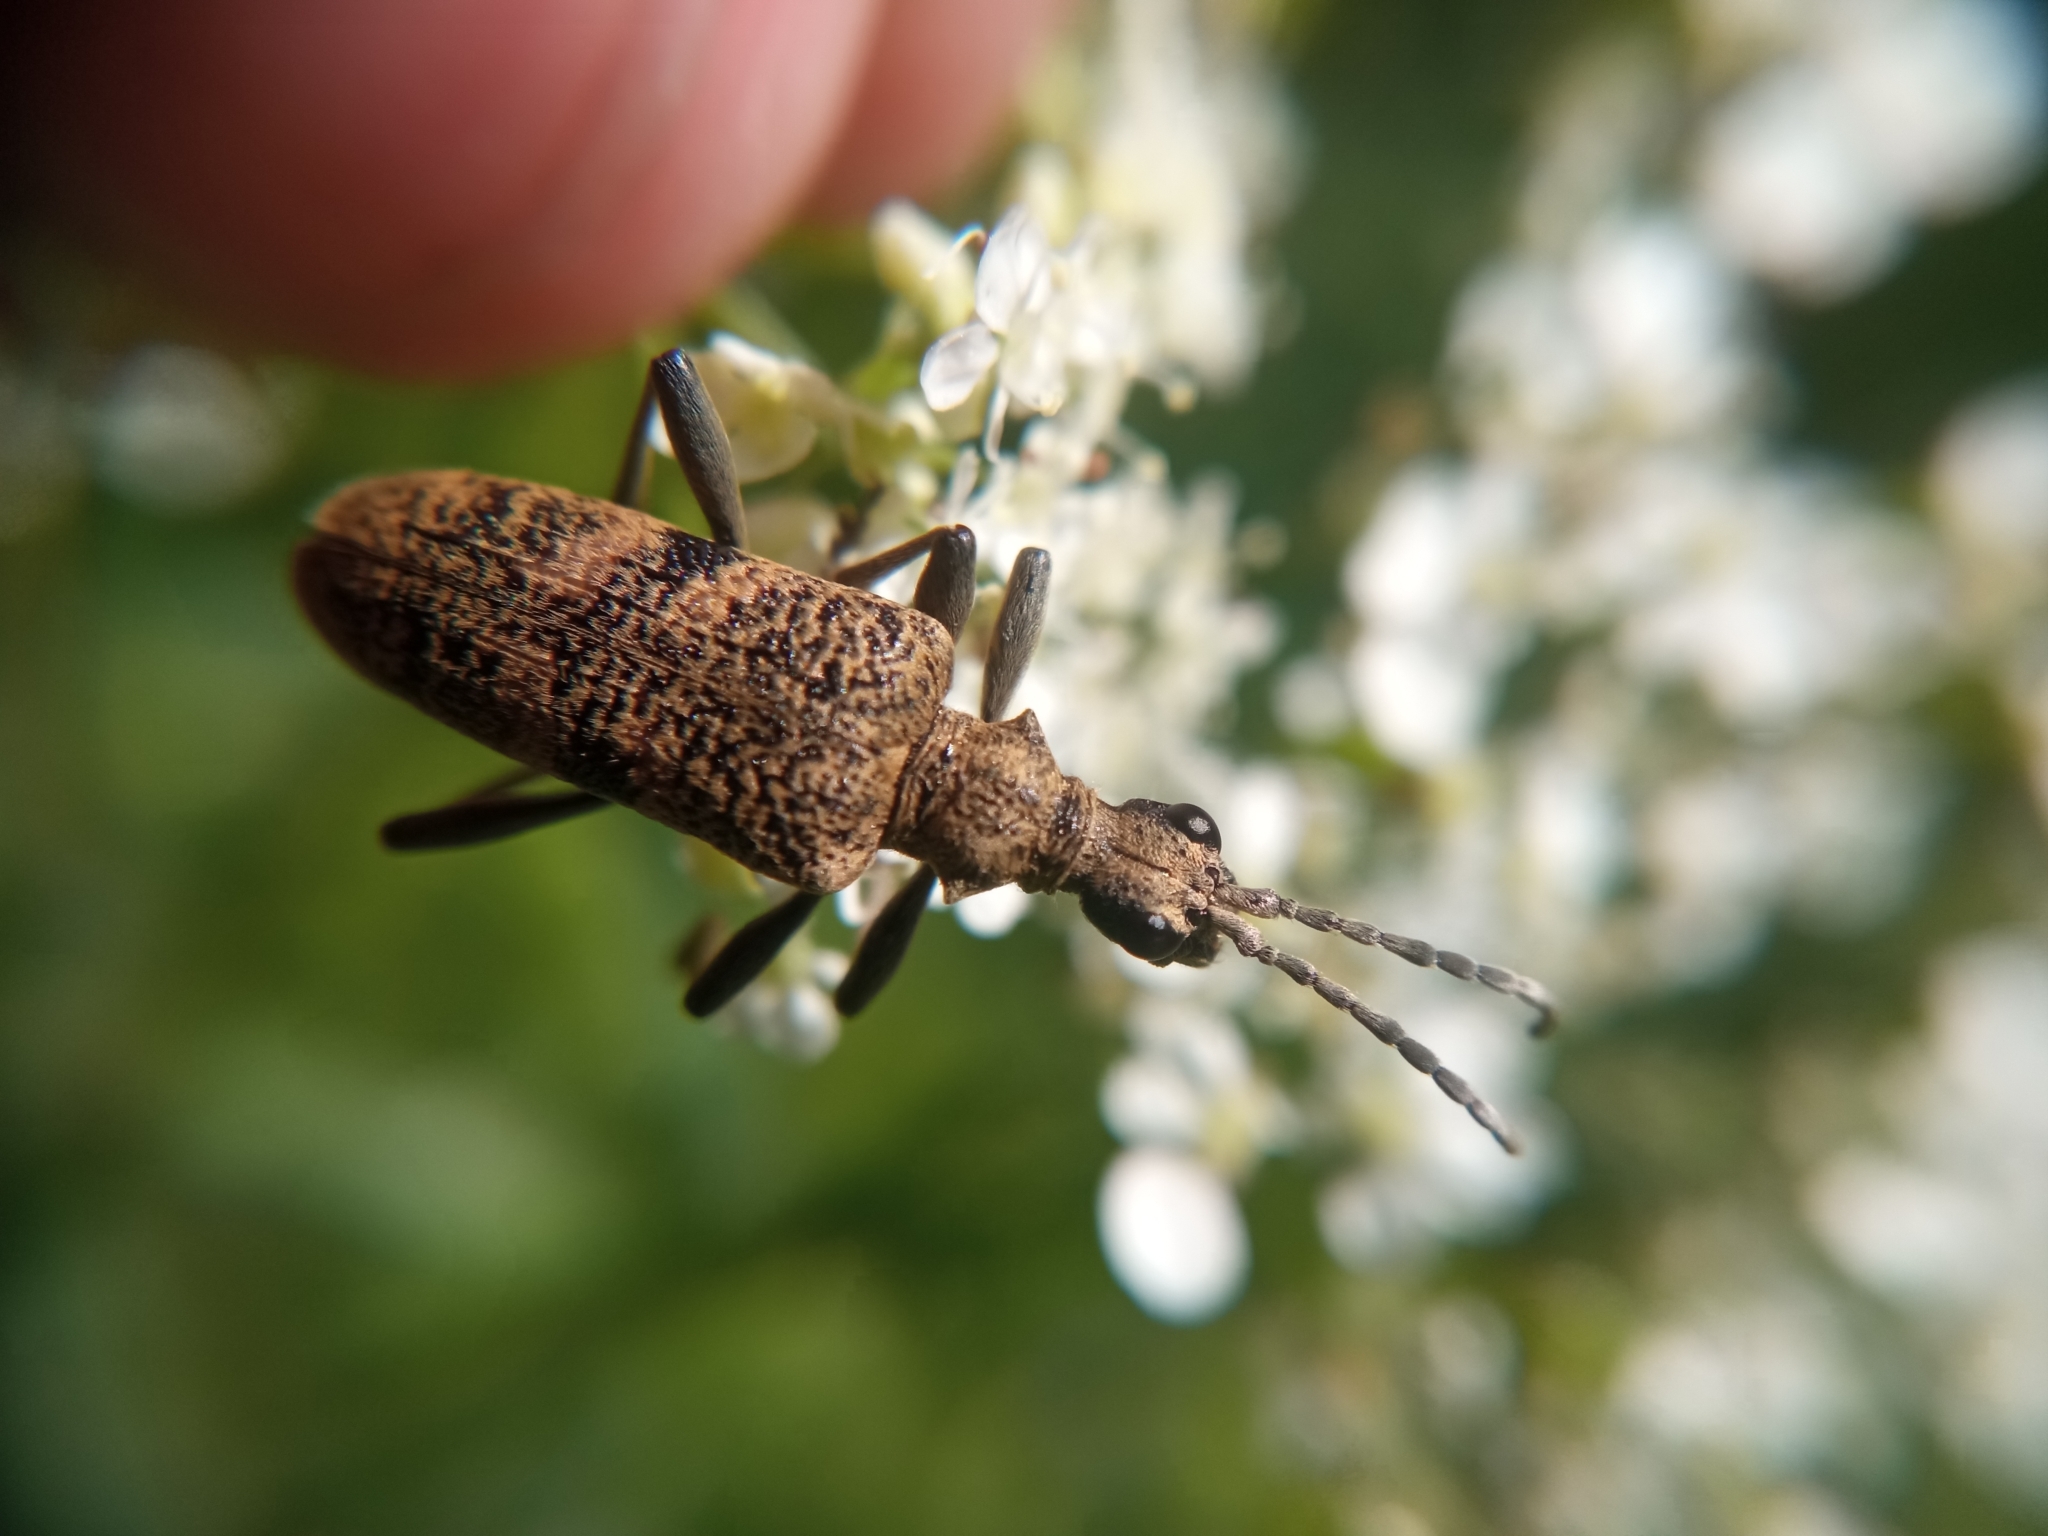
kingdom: Animalia
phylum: Arthropoda
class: Insecta
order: Coleoptera
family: Cerambycidae
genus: Rhagium
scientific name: Rhagium mordax
